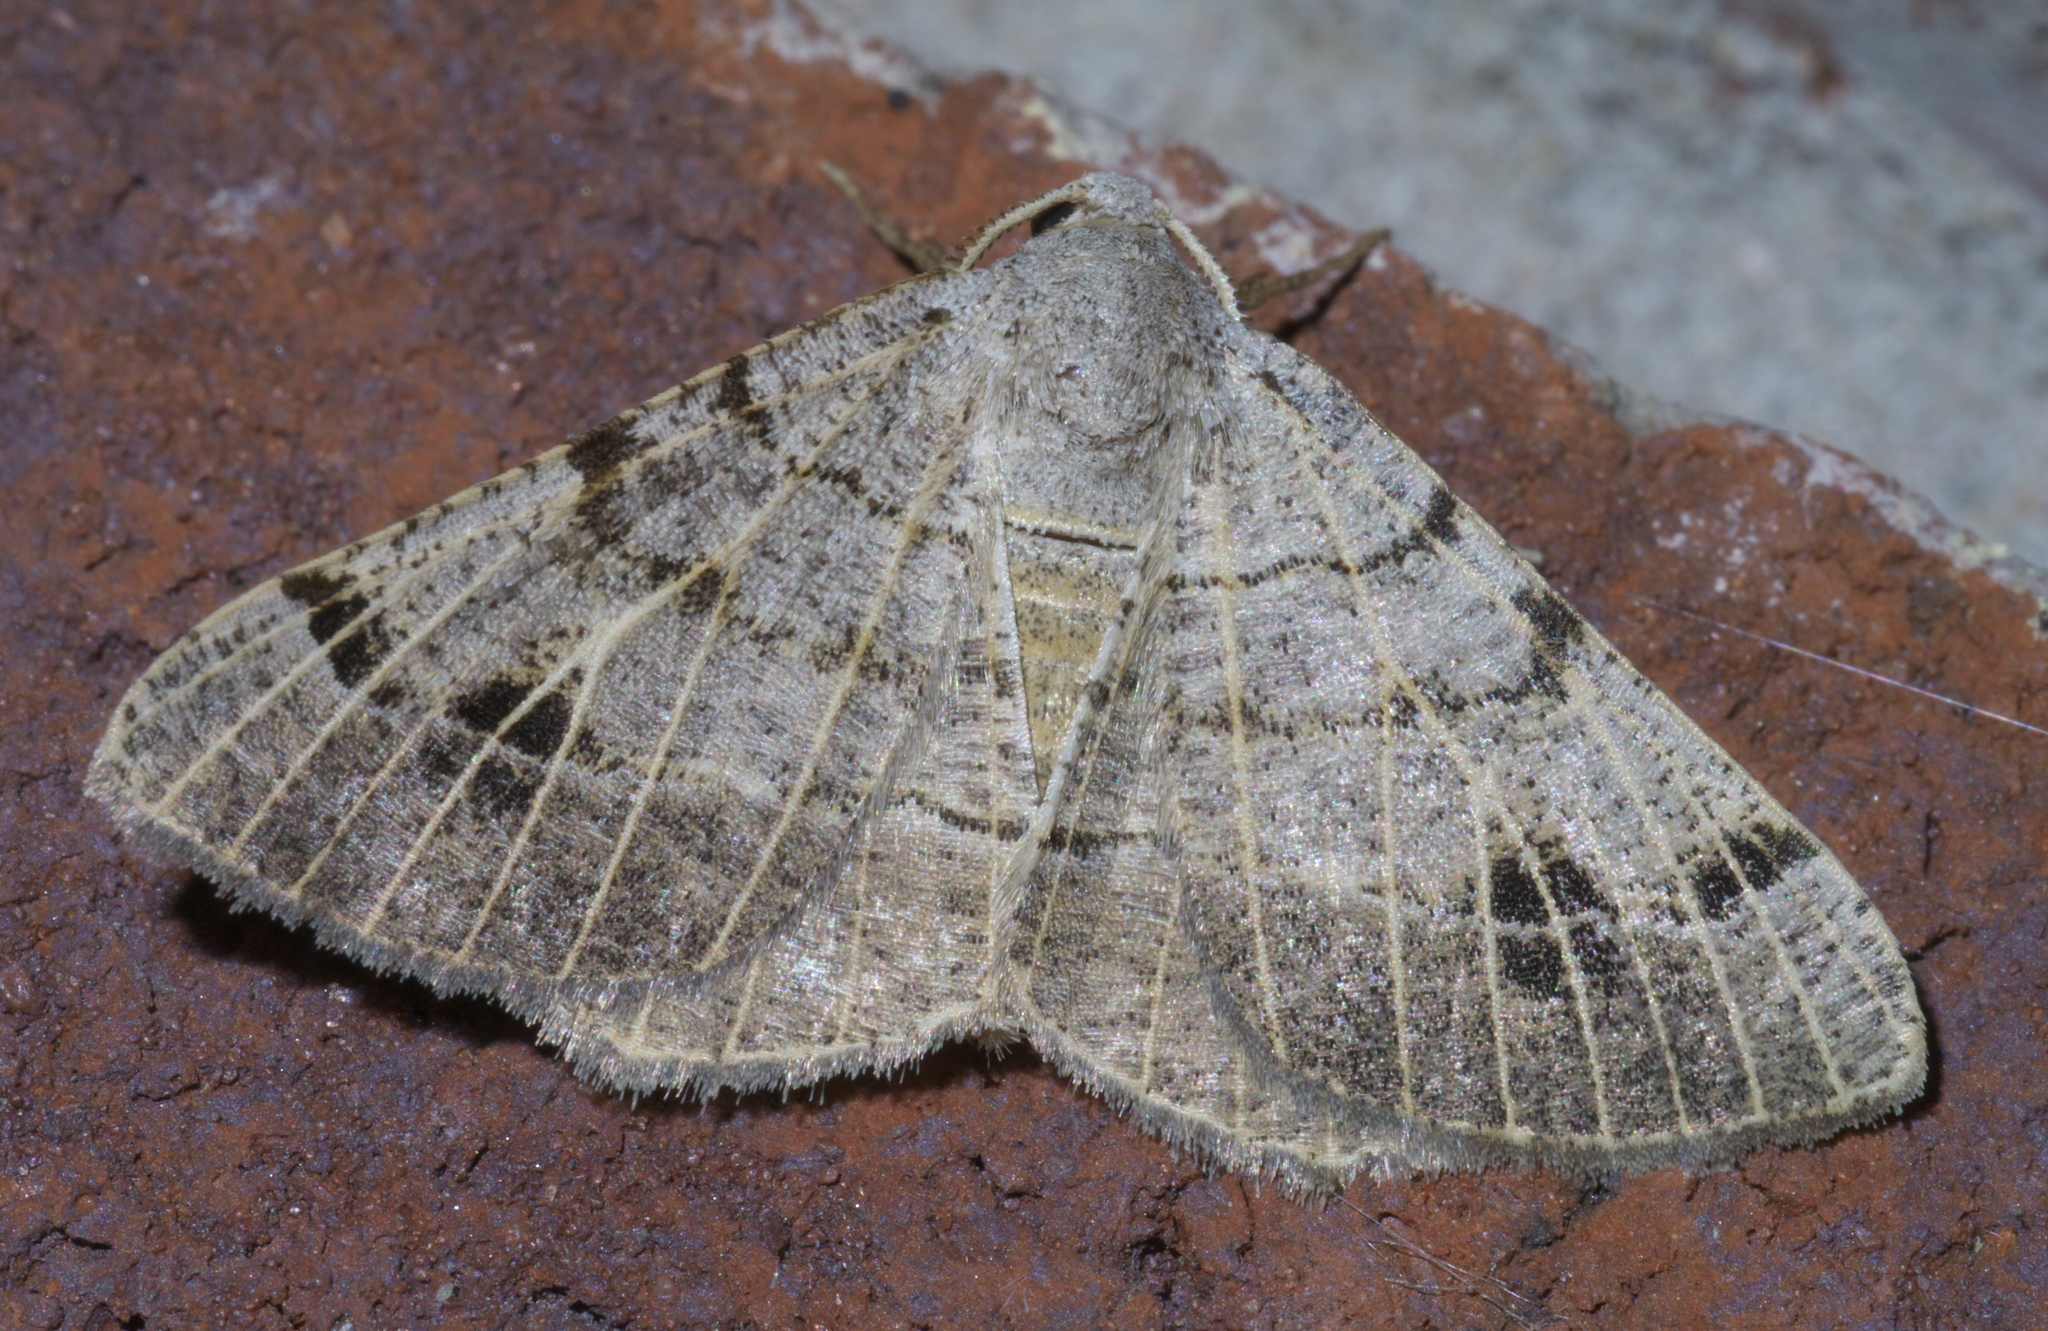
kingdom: Animalia
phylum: Arthropoda
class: Insecta
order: Lepidoptera
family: Geometridae
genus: Isturgia
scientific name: Isturgia dislocaria
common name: Pale-viened enconista
